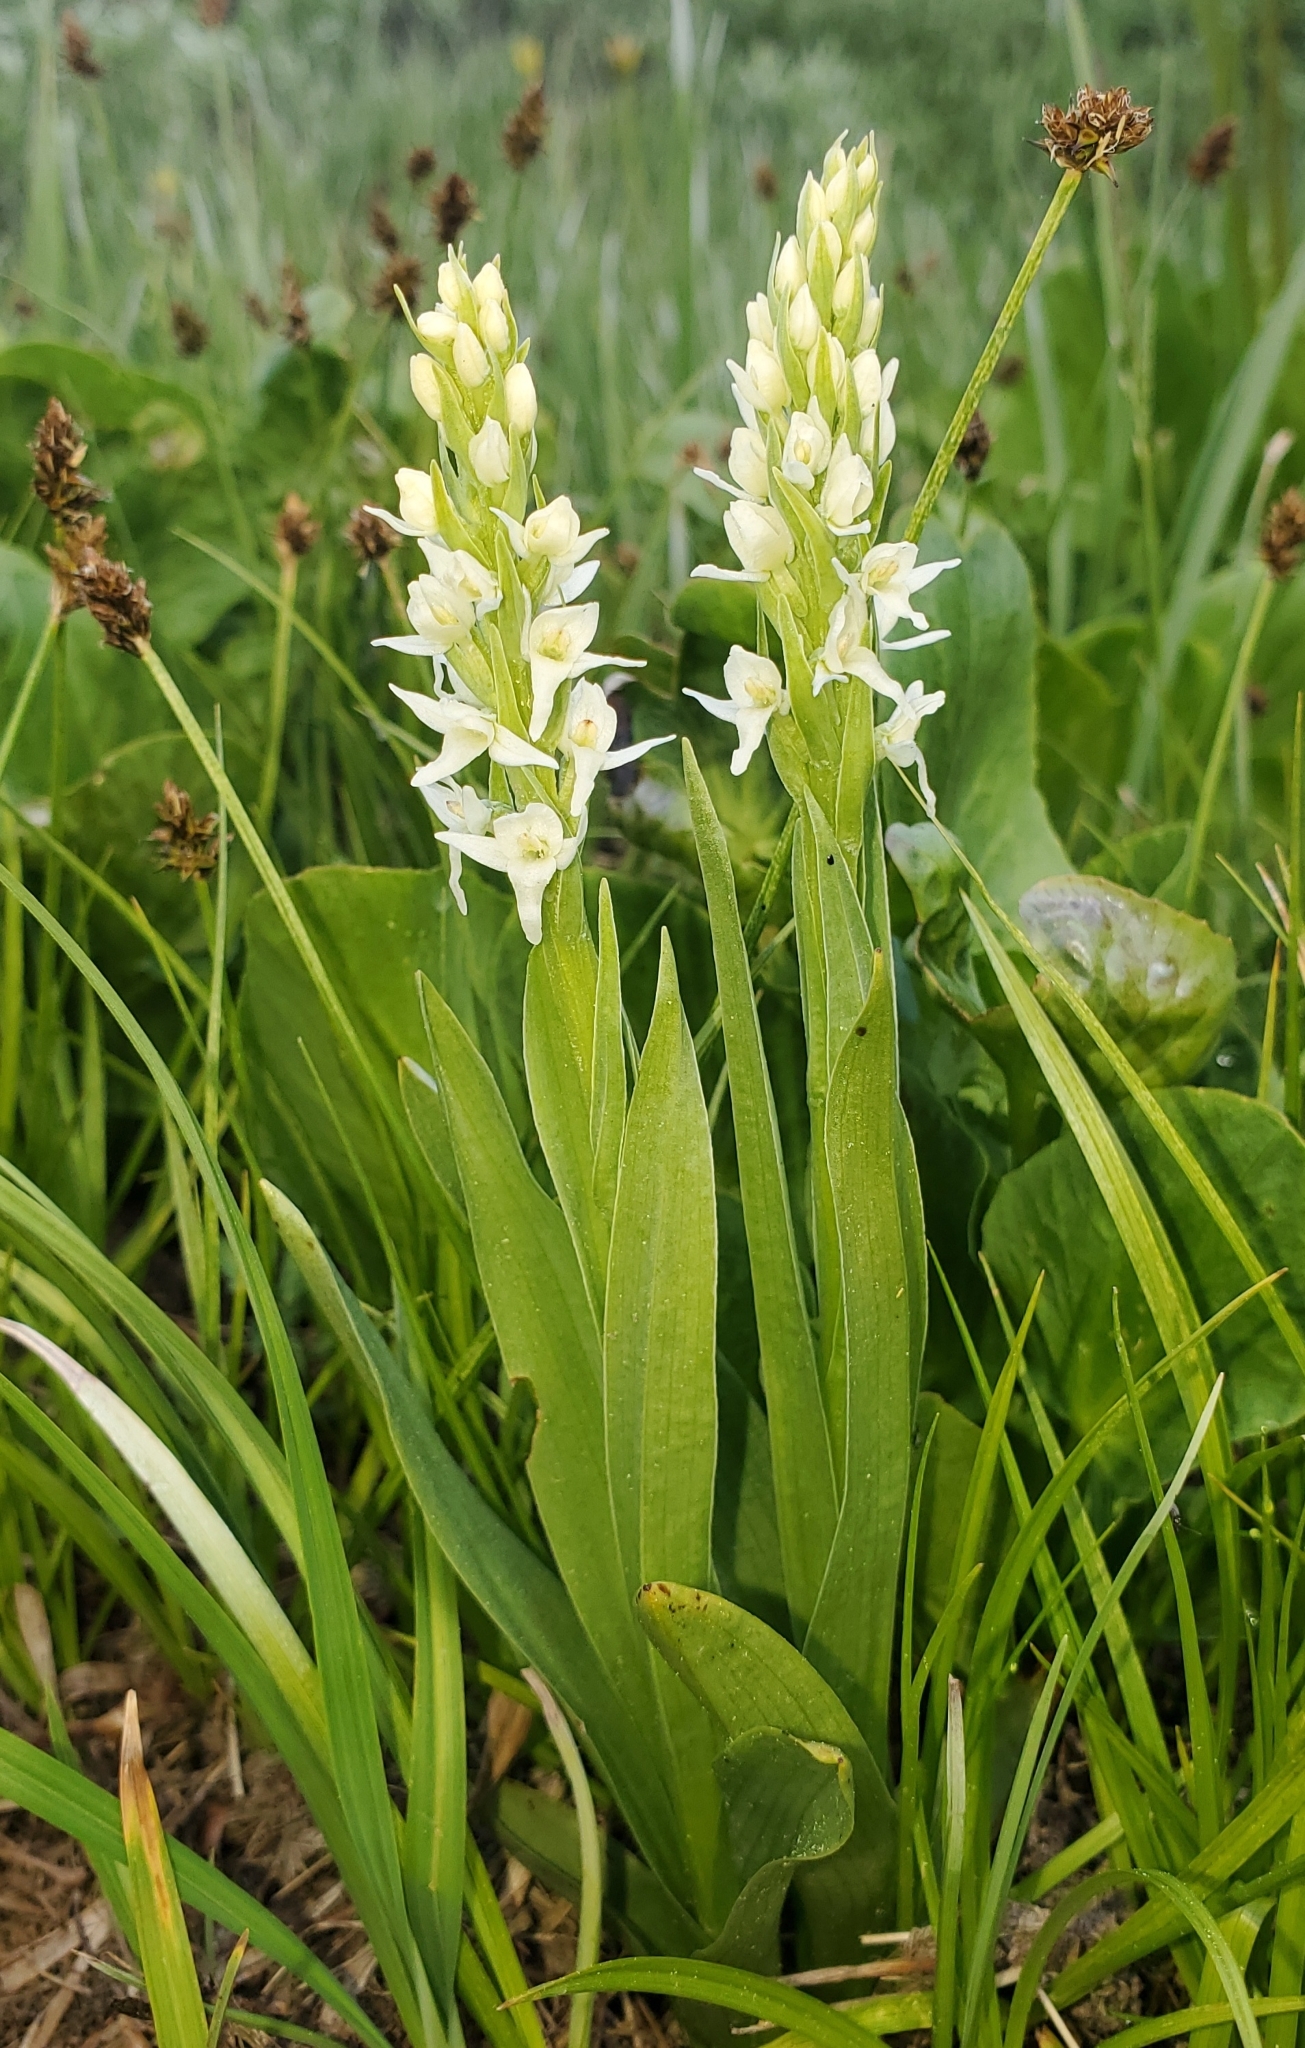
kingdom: Plantae
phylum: Tracheophyta
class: Liliopsida
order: Asparagales
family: Orchidaceae
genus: Platanthera
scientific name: Platanthera dilatata
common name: Bog candles
